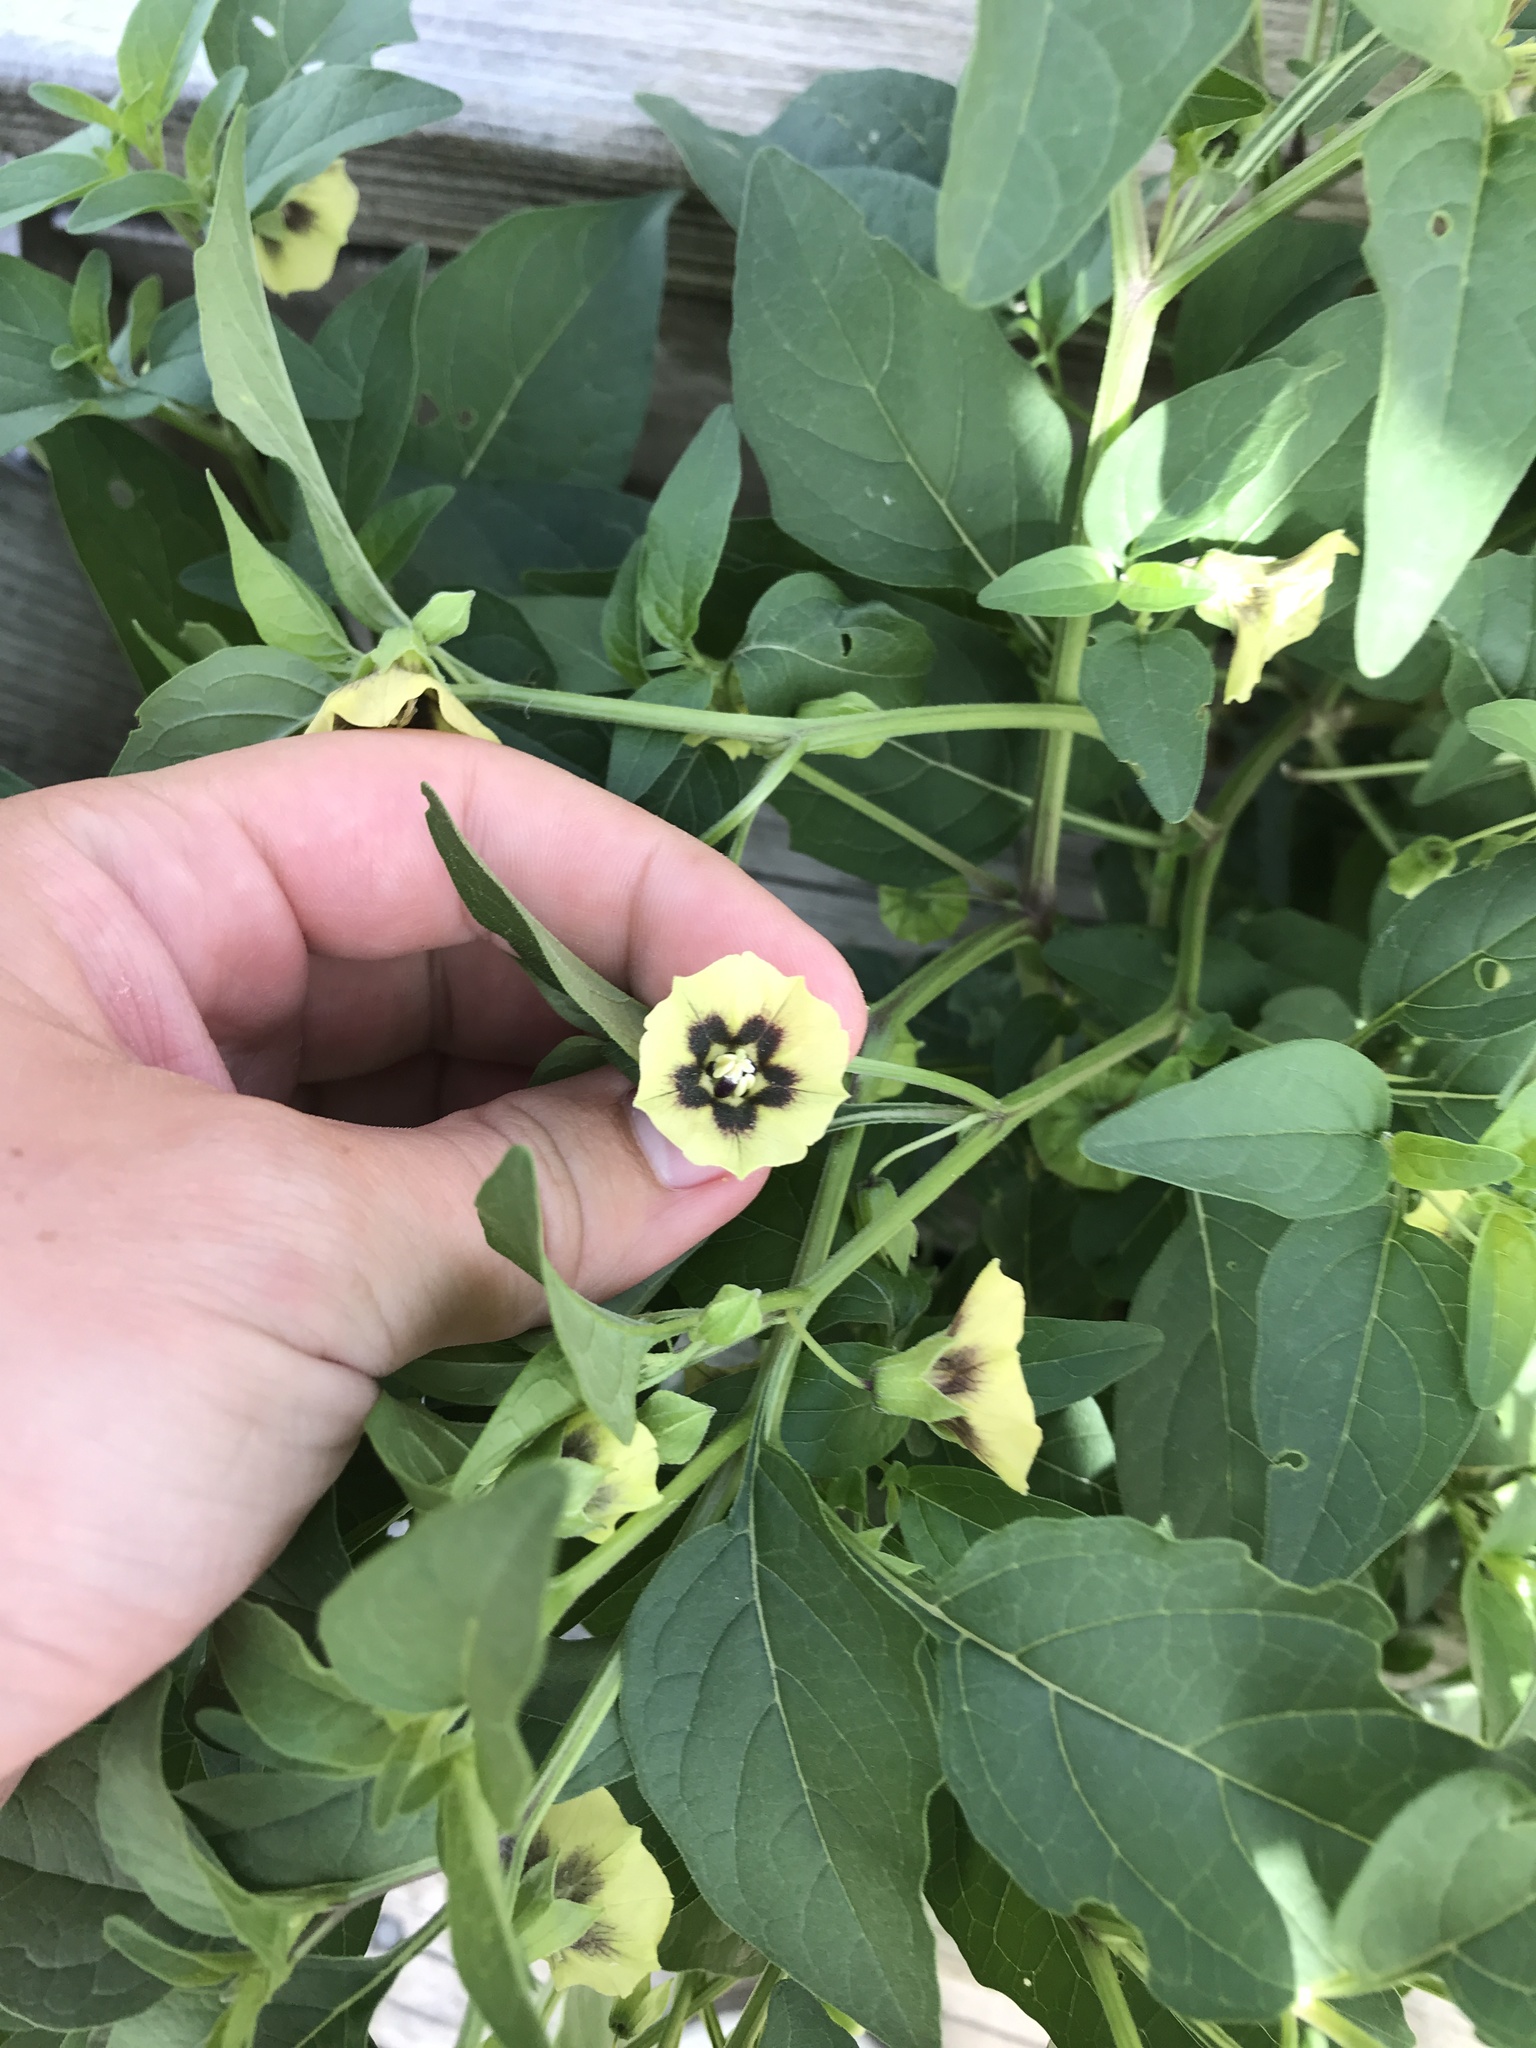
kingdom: Plantae
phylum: Tracheophyta
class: Magnoliopsida
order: Solanales
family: Solanaceae
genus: Physalis
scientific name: Physalis longifolia
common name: Common ground-cherry
